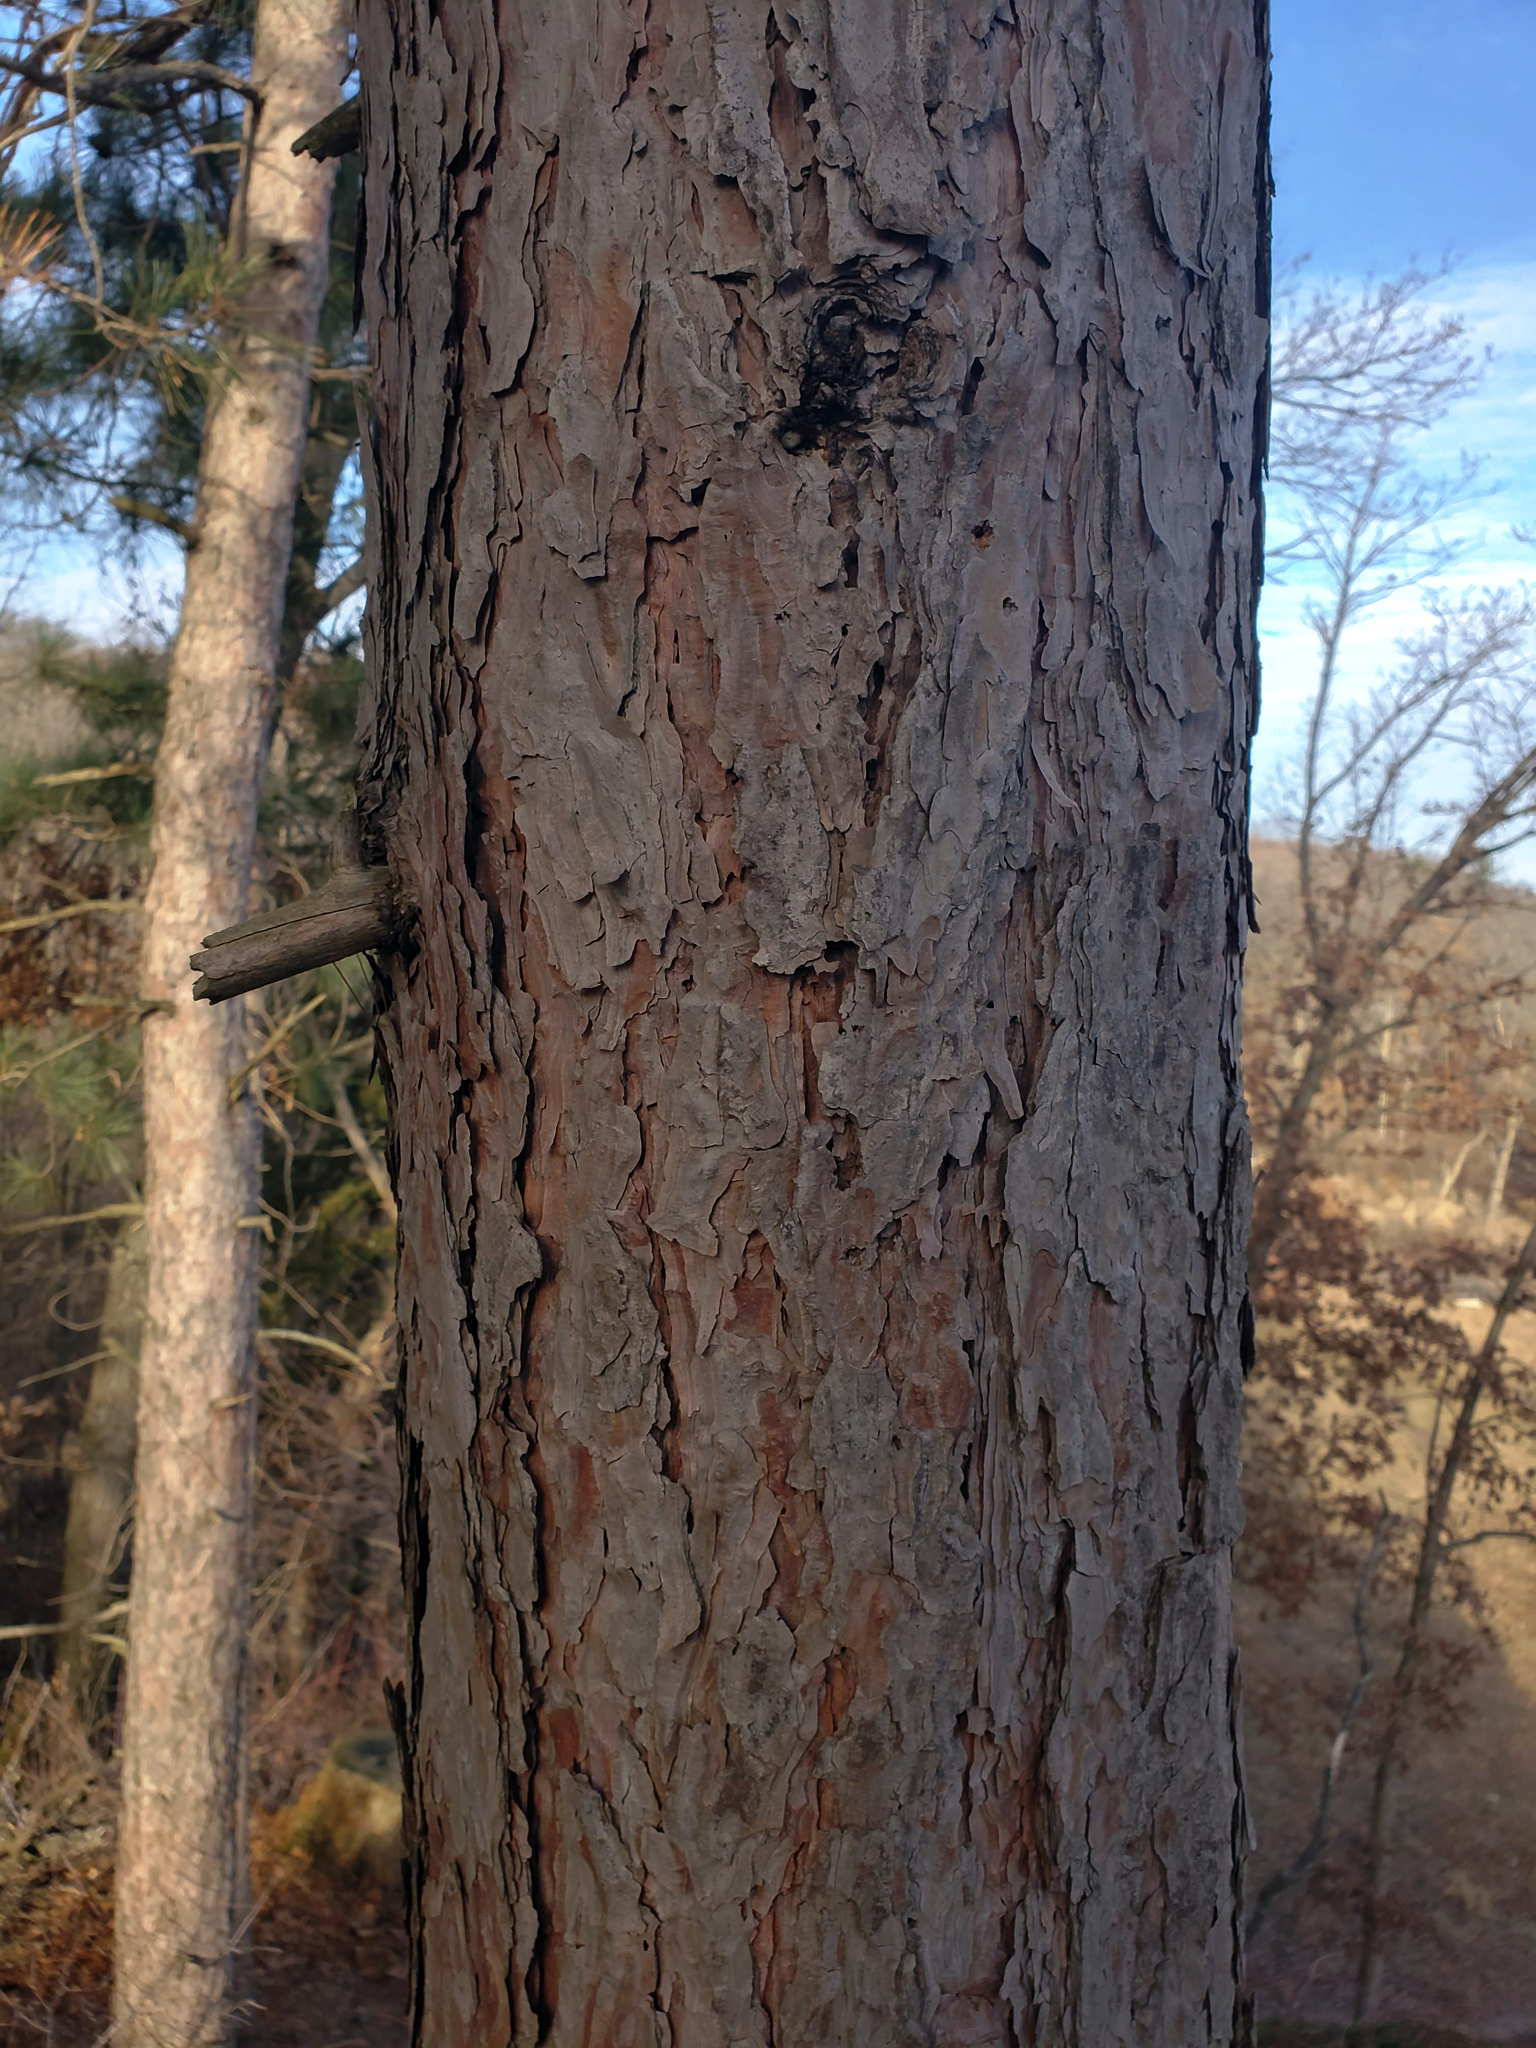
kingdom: Plantae
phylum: Tracheophyta
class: Pinopsida
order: Pinales
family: Pinaceae
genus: Pinus
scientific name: Pinus resinosa
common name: Norway pine
